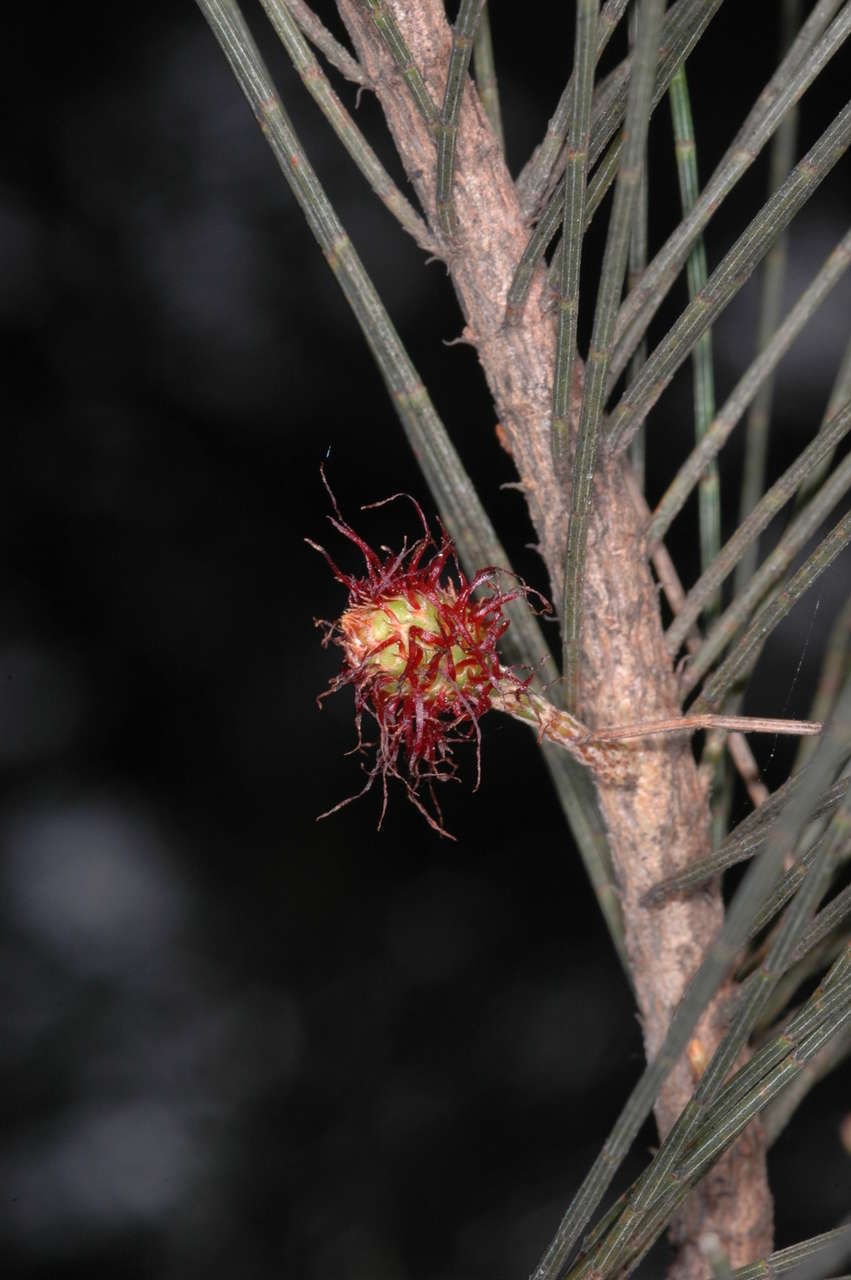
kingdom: Plantae
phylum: Tracheophyta
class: Magnoliopsida
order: Fagales
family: Casuarinaceae
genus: Allocasuarina
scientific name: Allocasuarina littoralis
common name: Black she-oak
